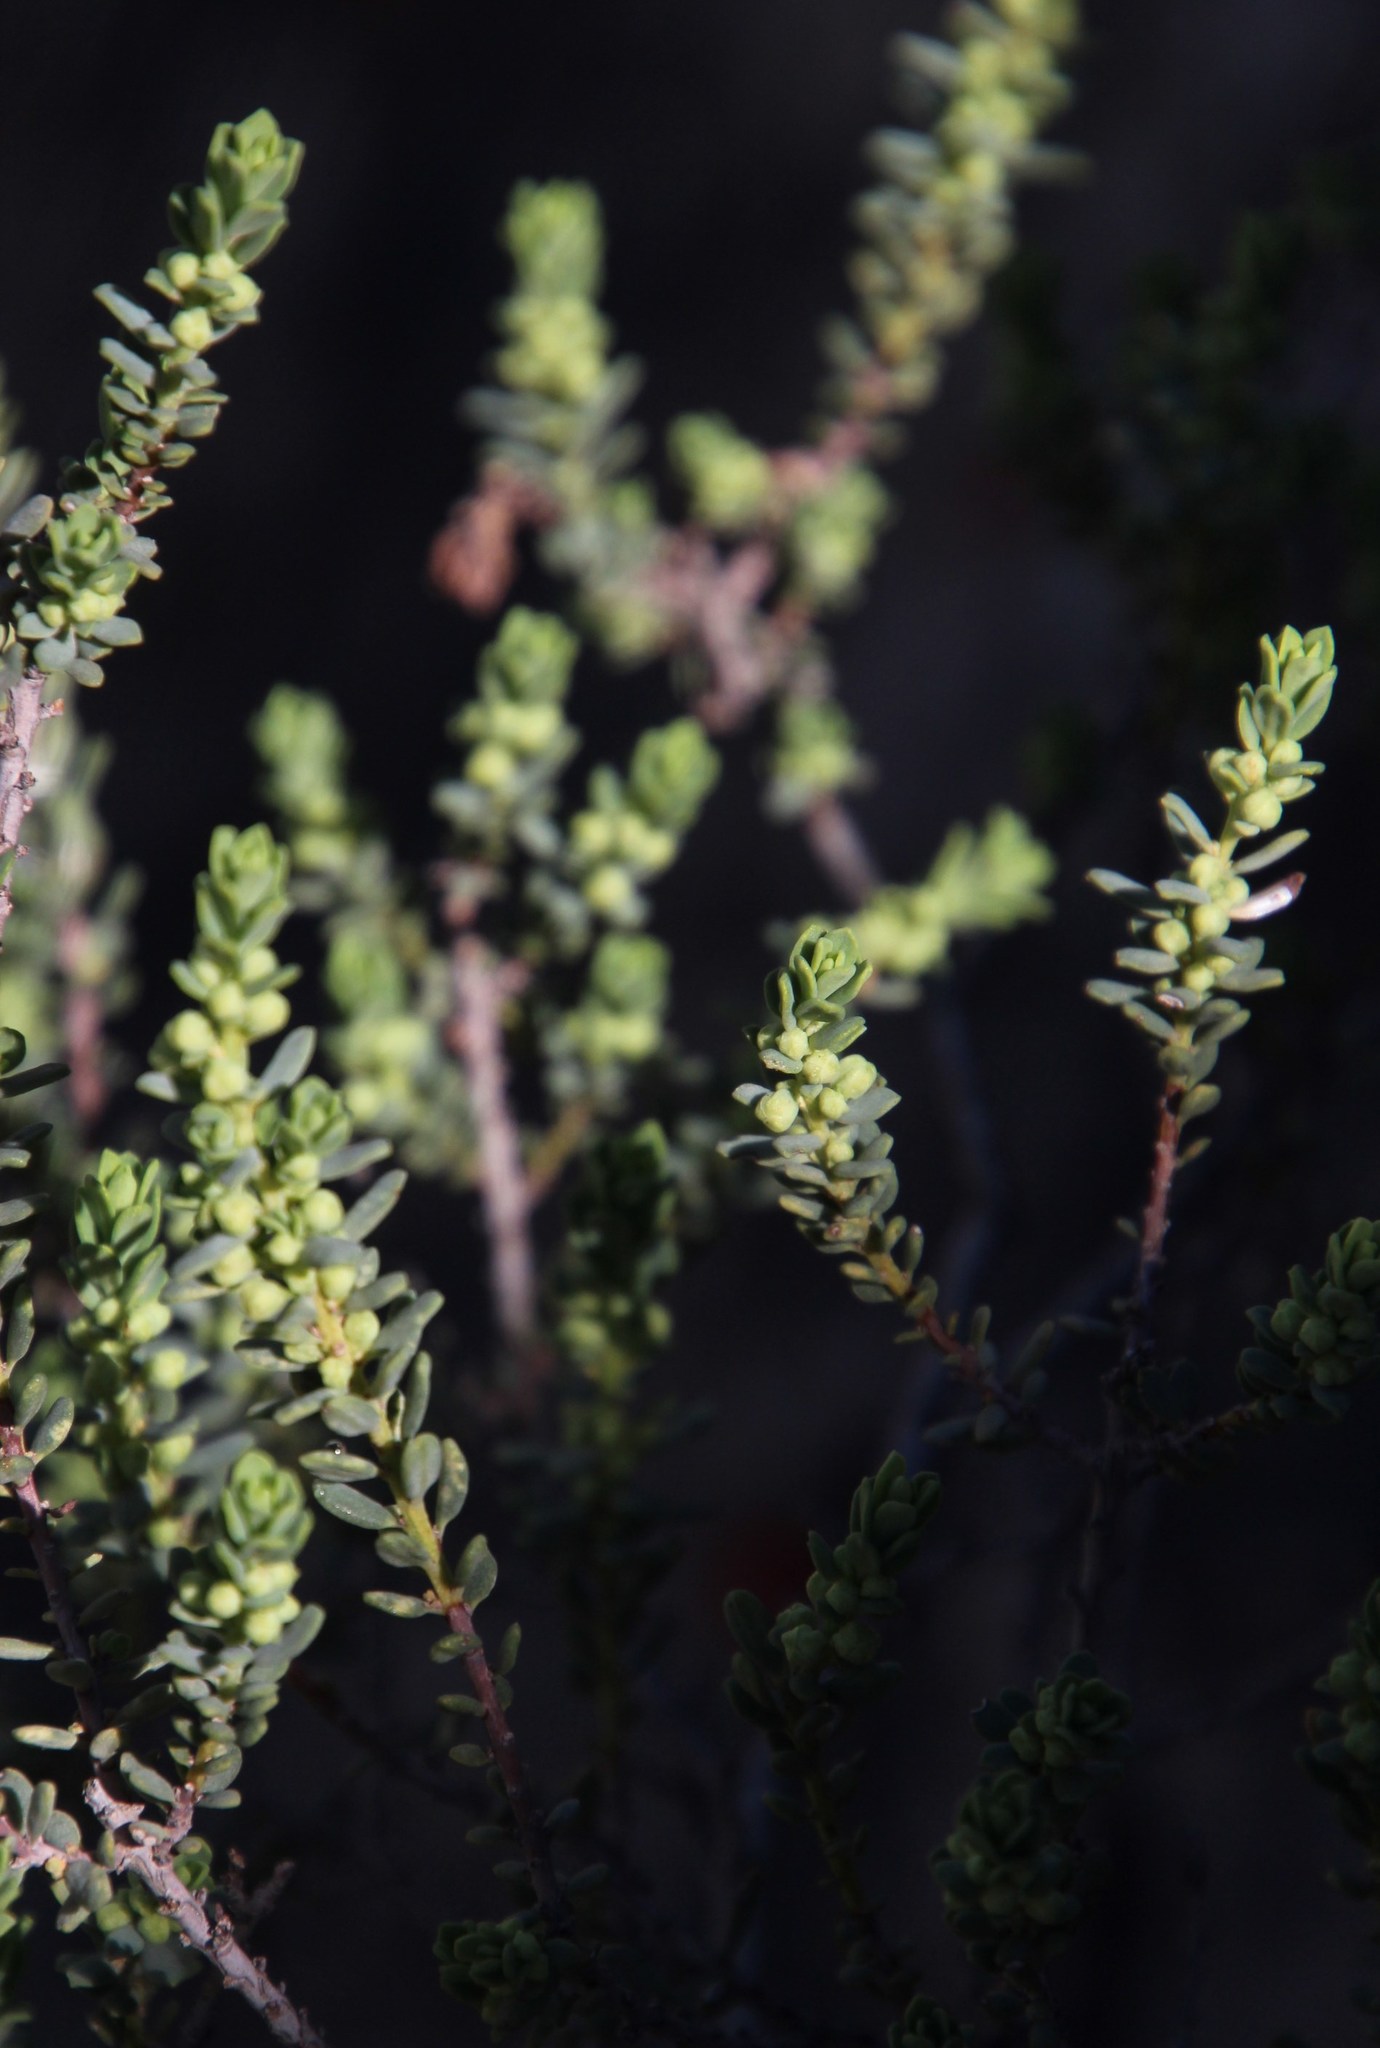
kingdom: Plantae
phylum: Tracheophyta
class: Magnoliopsida
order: Malpighiales
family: Peraceae
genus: Clutia
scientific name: Clutia alaternoides
